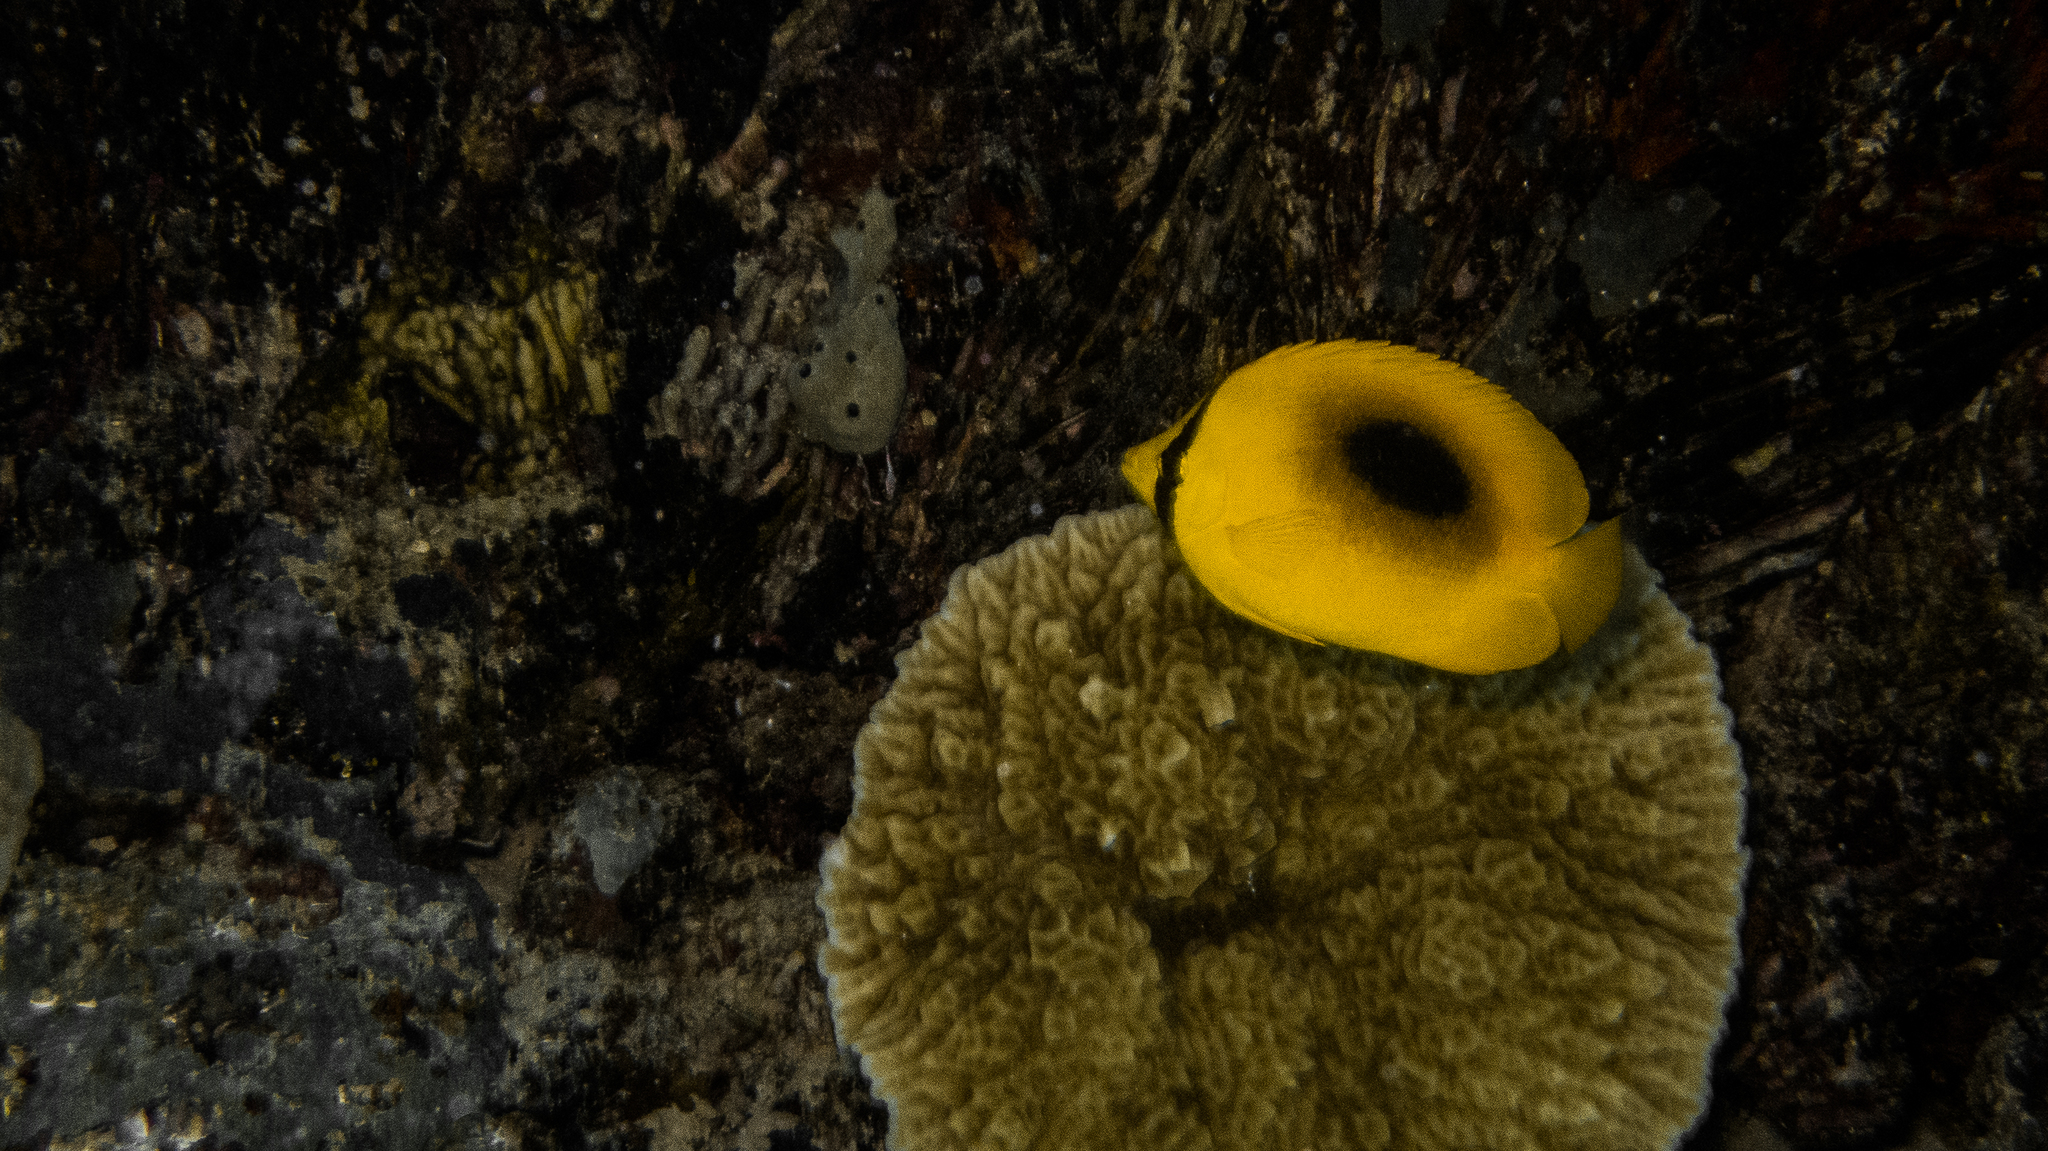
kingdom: Animalia
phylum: Chordata
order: Perciformes
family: Chaetodontidae
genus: Chaetodon
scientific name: Chaetodon speculum
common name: Mirror butterflyfish
